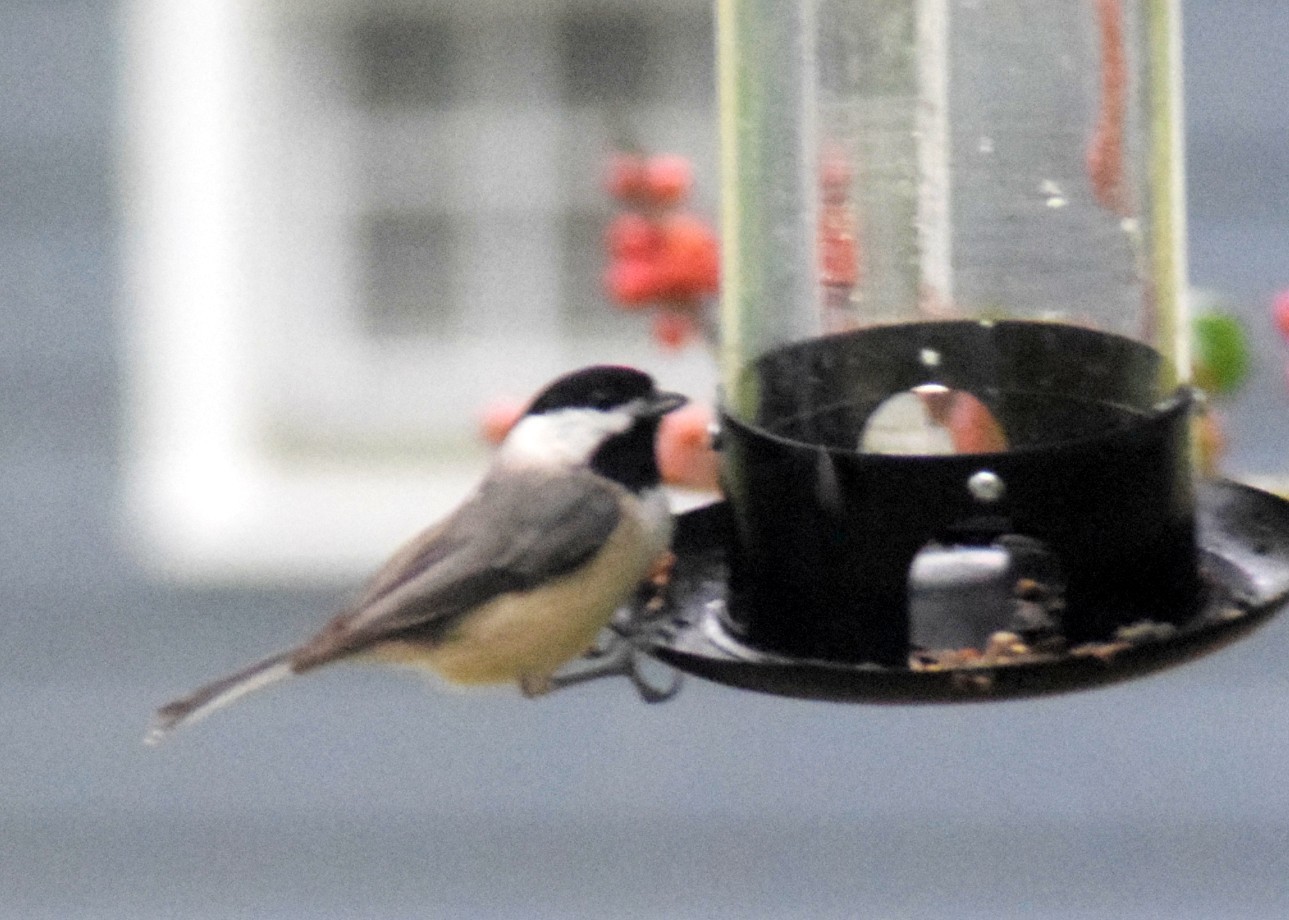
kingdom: Animalia
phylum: Chordata
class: Aves
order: Passeriformes
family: Paridae
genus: Poecile
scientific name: Poecile carolinensis
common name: Carolina chickadee
